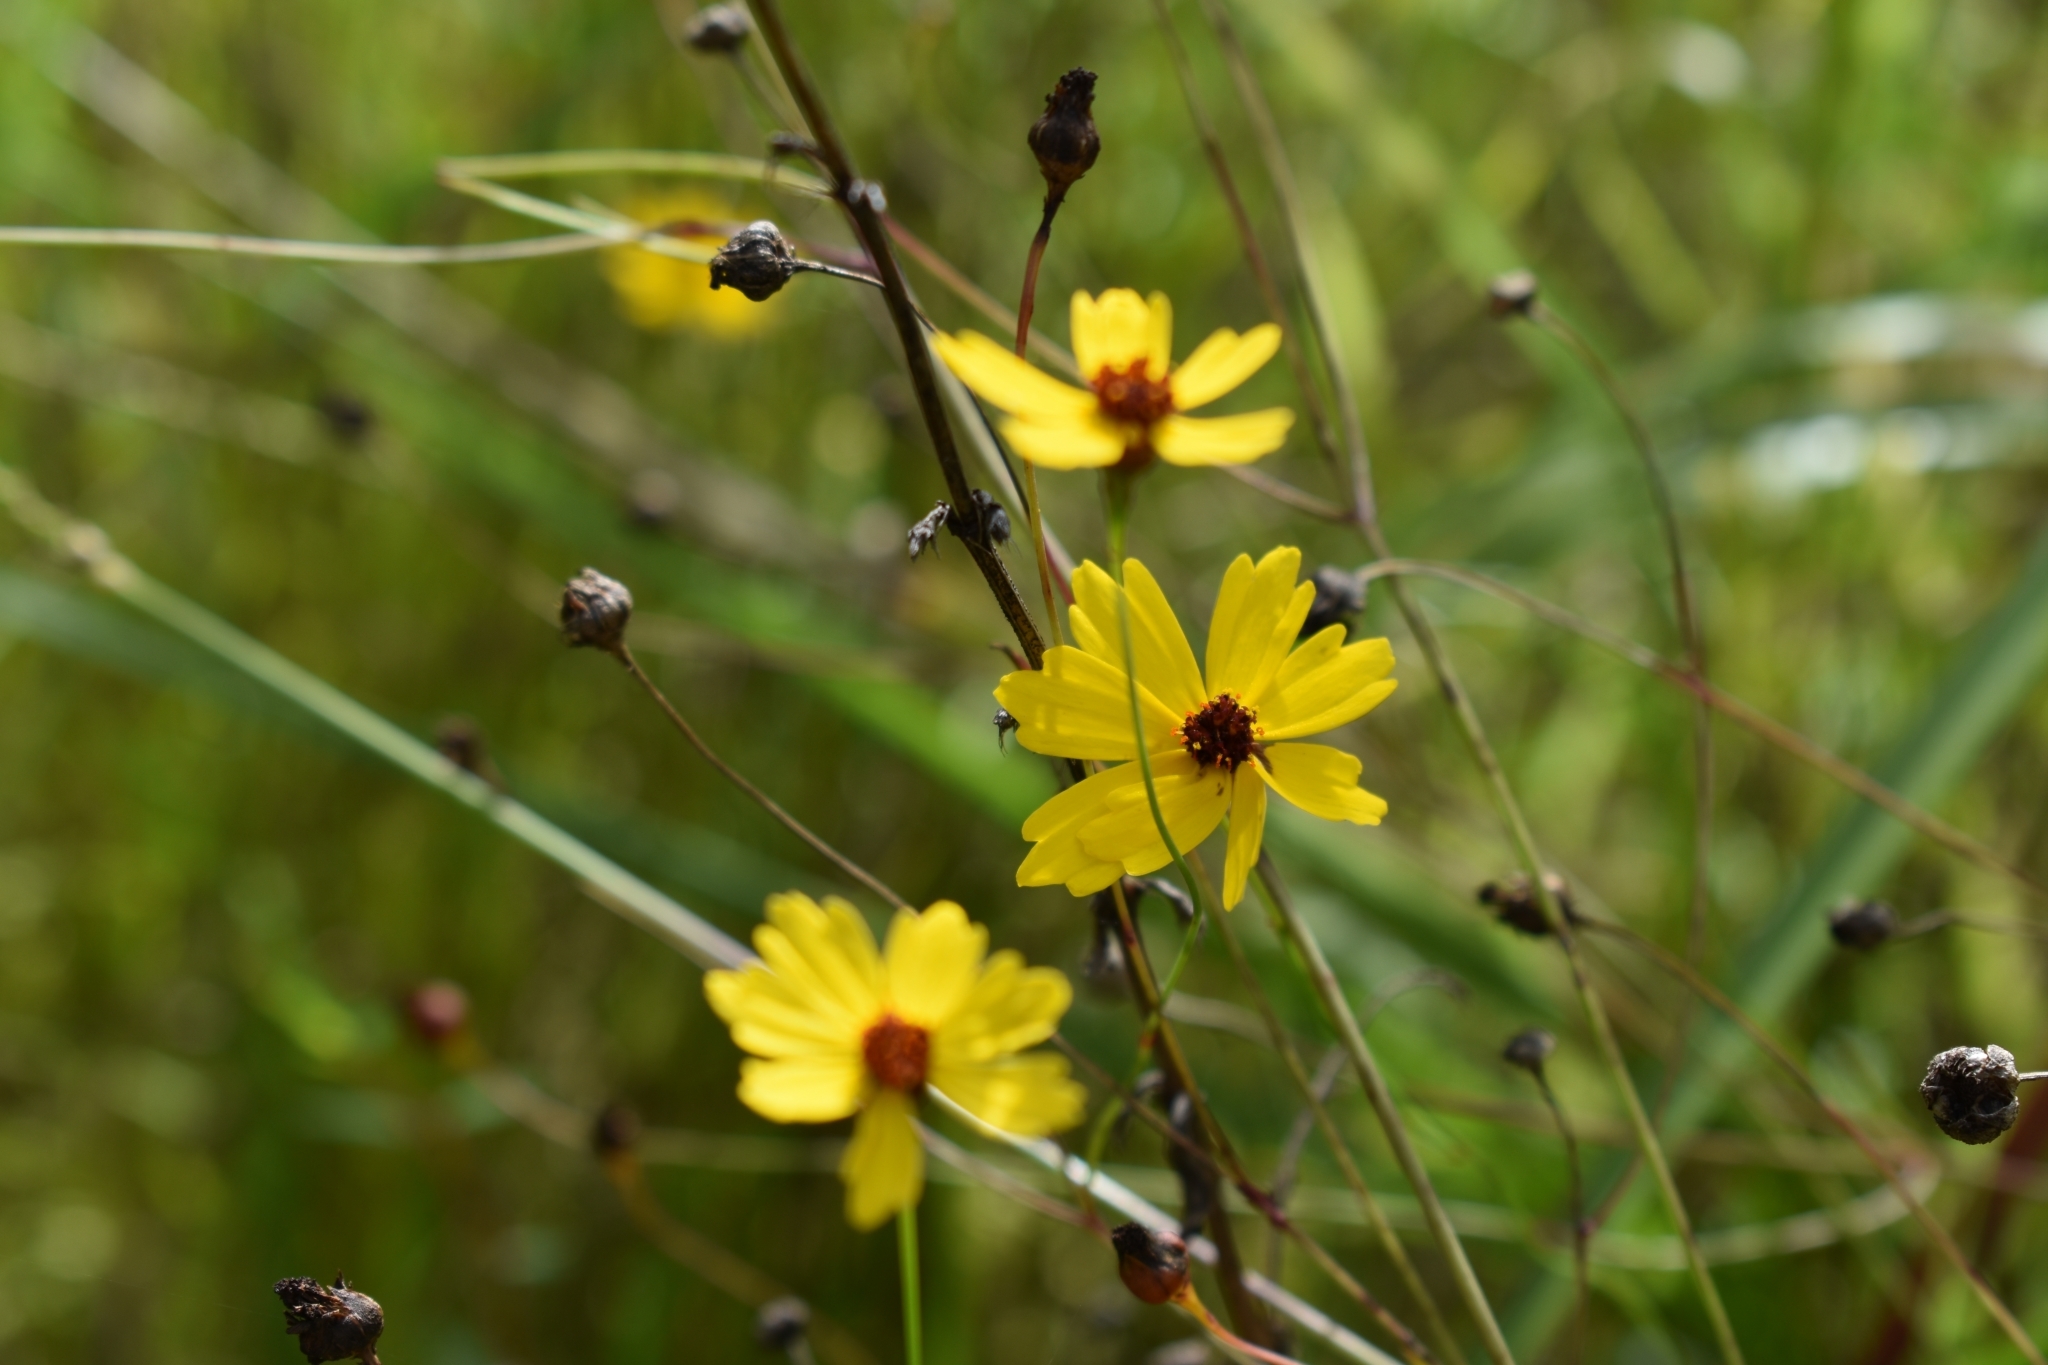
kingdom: Plantae
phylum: Tracheophyta
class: Magnoliopsida
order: Asterales
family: Asteraceae
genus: Coreopsis
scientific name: Coreopsis leavenworthii
